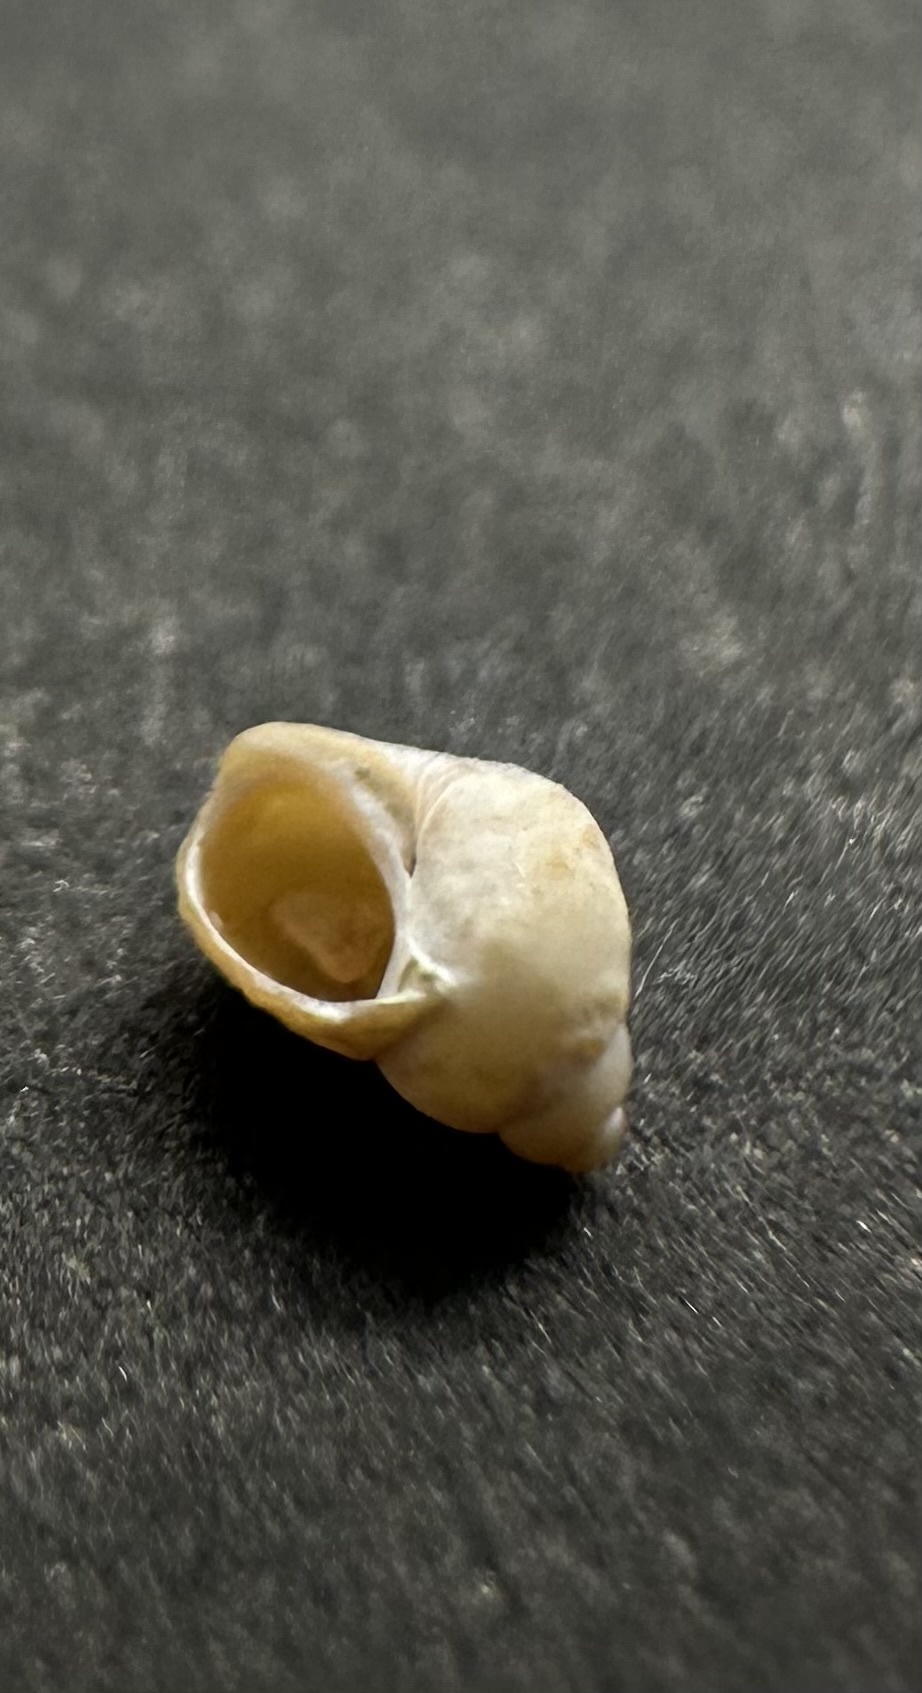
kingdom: Animalia
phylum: Mollusca
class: Gastropoda
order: Littorinimorpha
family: Littorinidae
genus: Lacuna
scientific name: Lacuna vincta
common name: Banded chink shell
